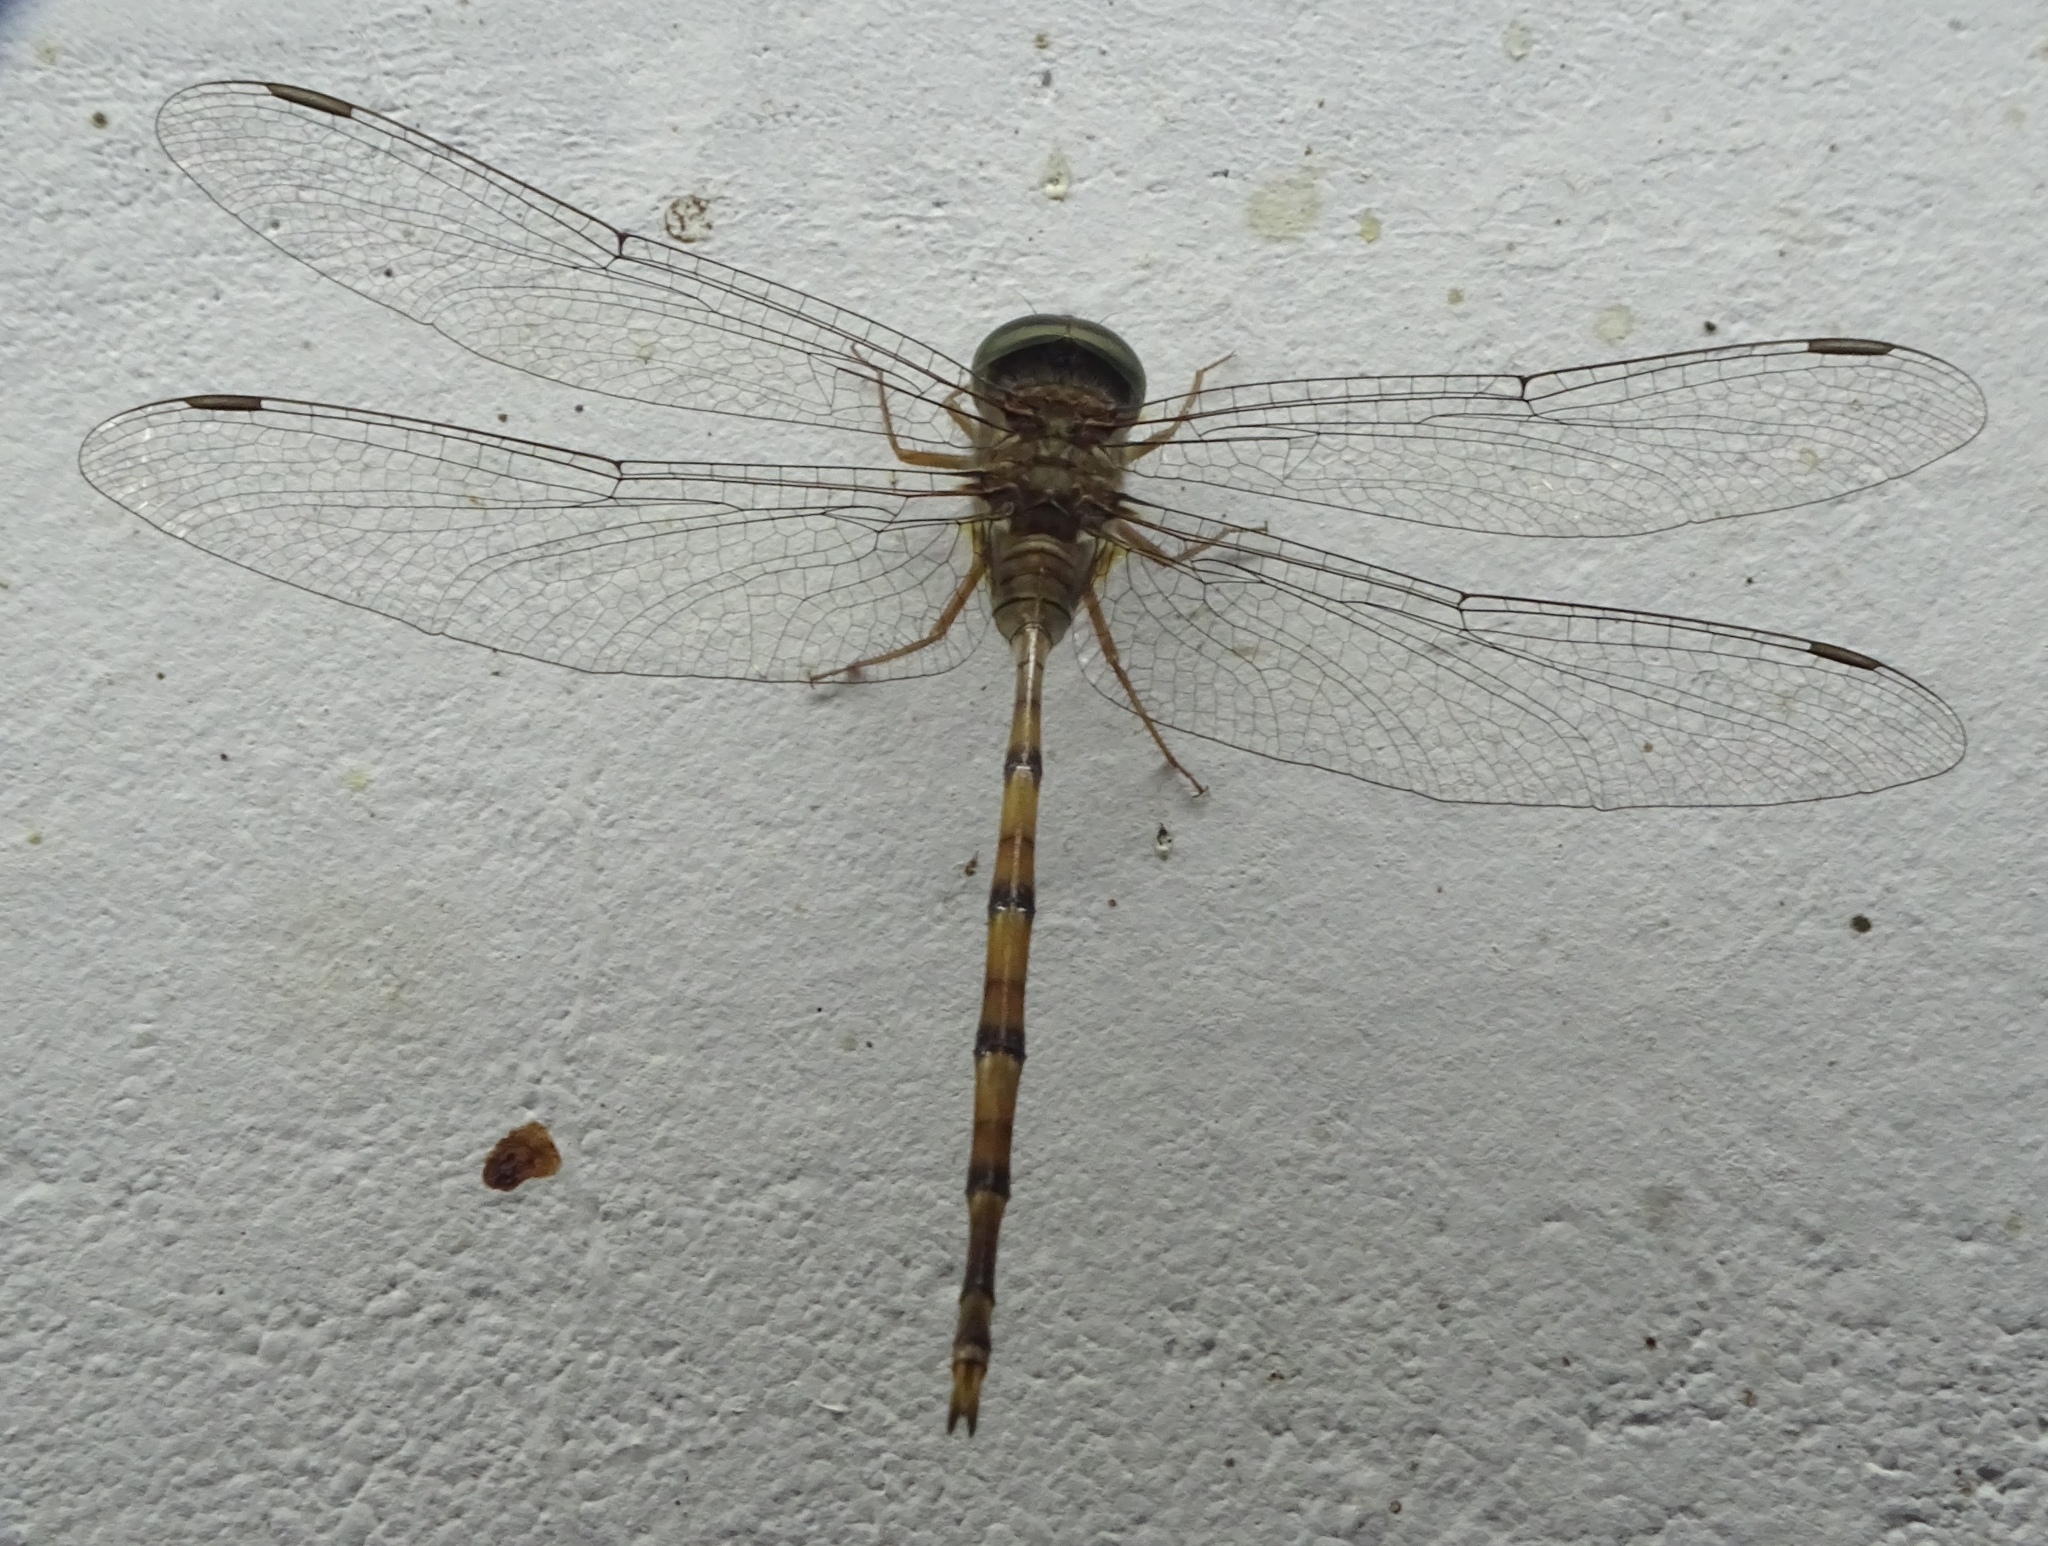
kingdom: Animalia
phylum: Arthropoda
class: Insecta
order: Odonata
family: Libellulidae
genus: Zyxomma
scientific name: Zyxomma petiolatum
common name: Dingy dusk-darter
